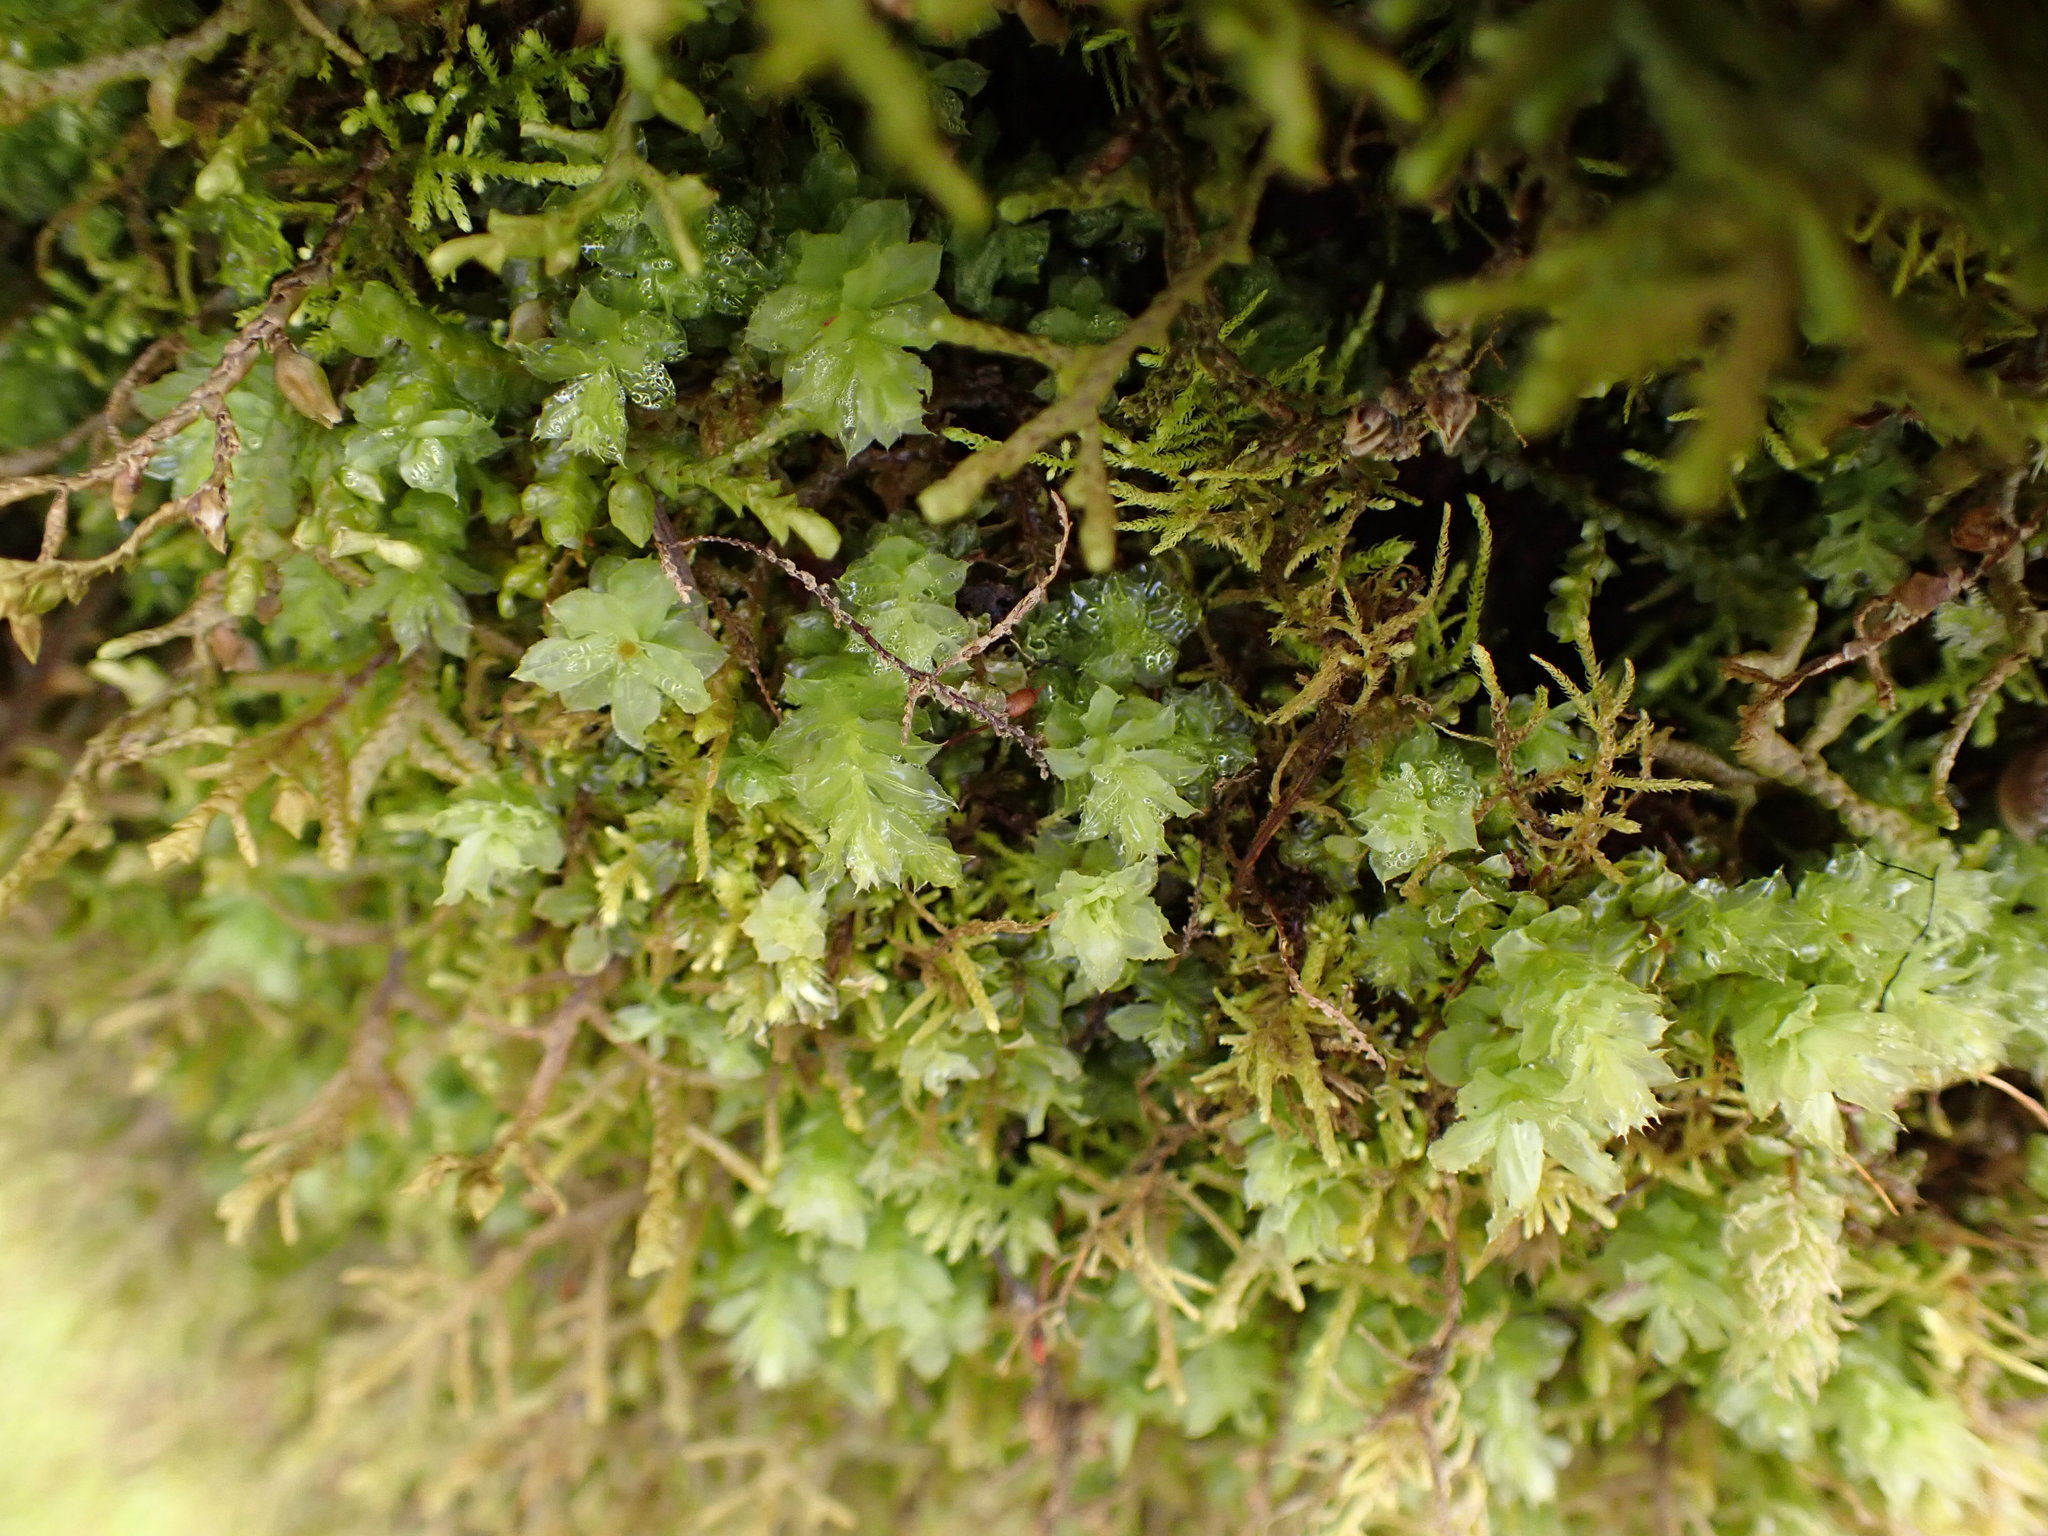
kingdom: Plantae
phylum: Bryophyta
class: Bryopsida
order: Bryales
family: Mniaceae
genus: Plagiomnium
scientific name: Plagiomnium venustum
